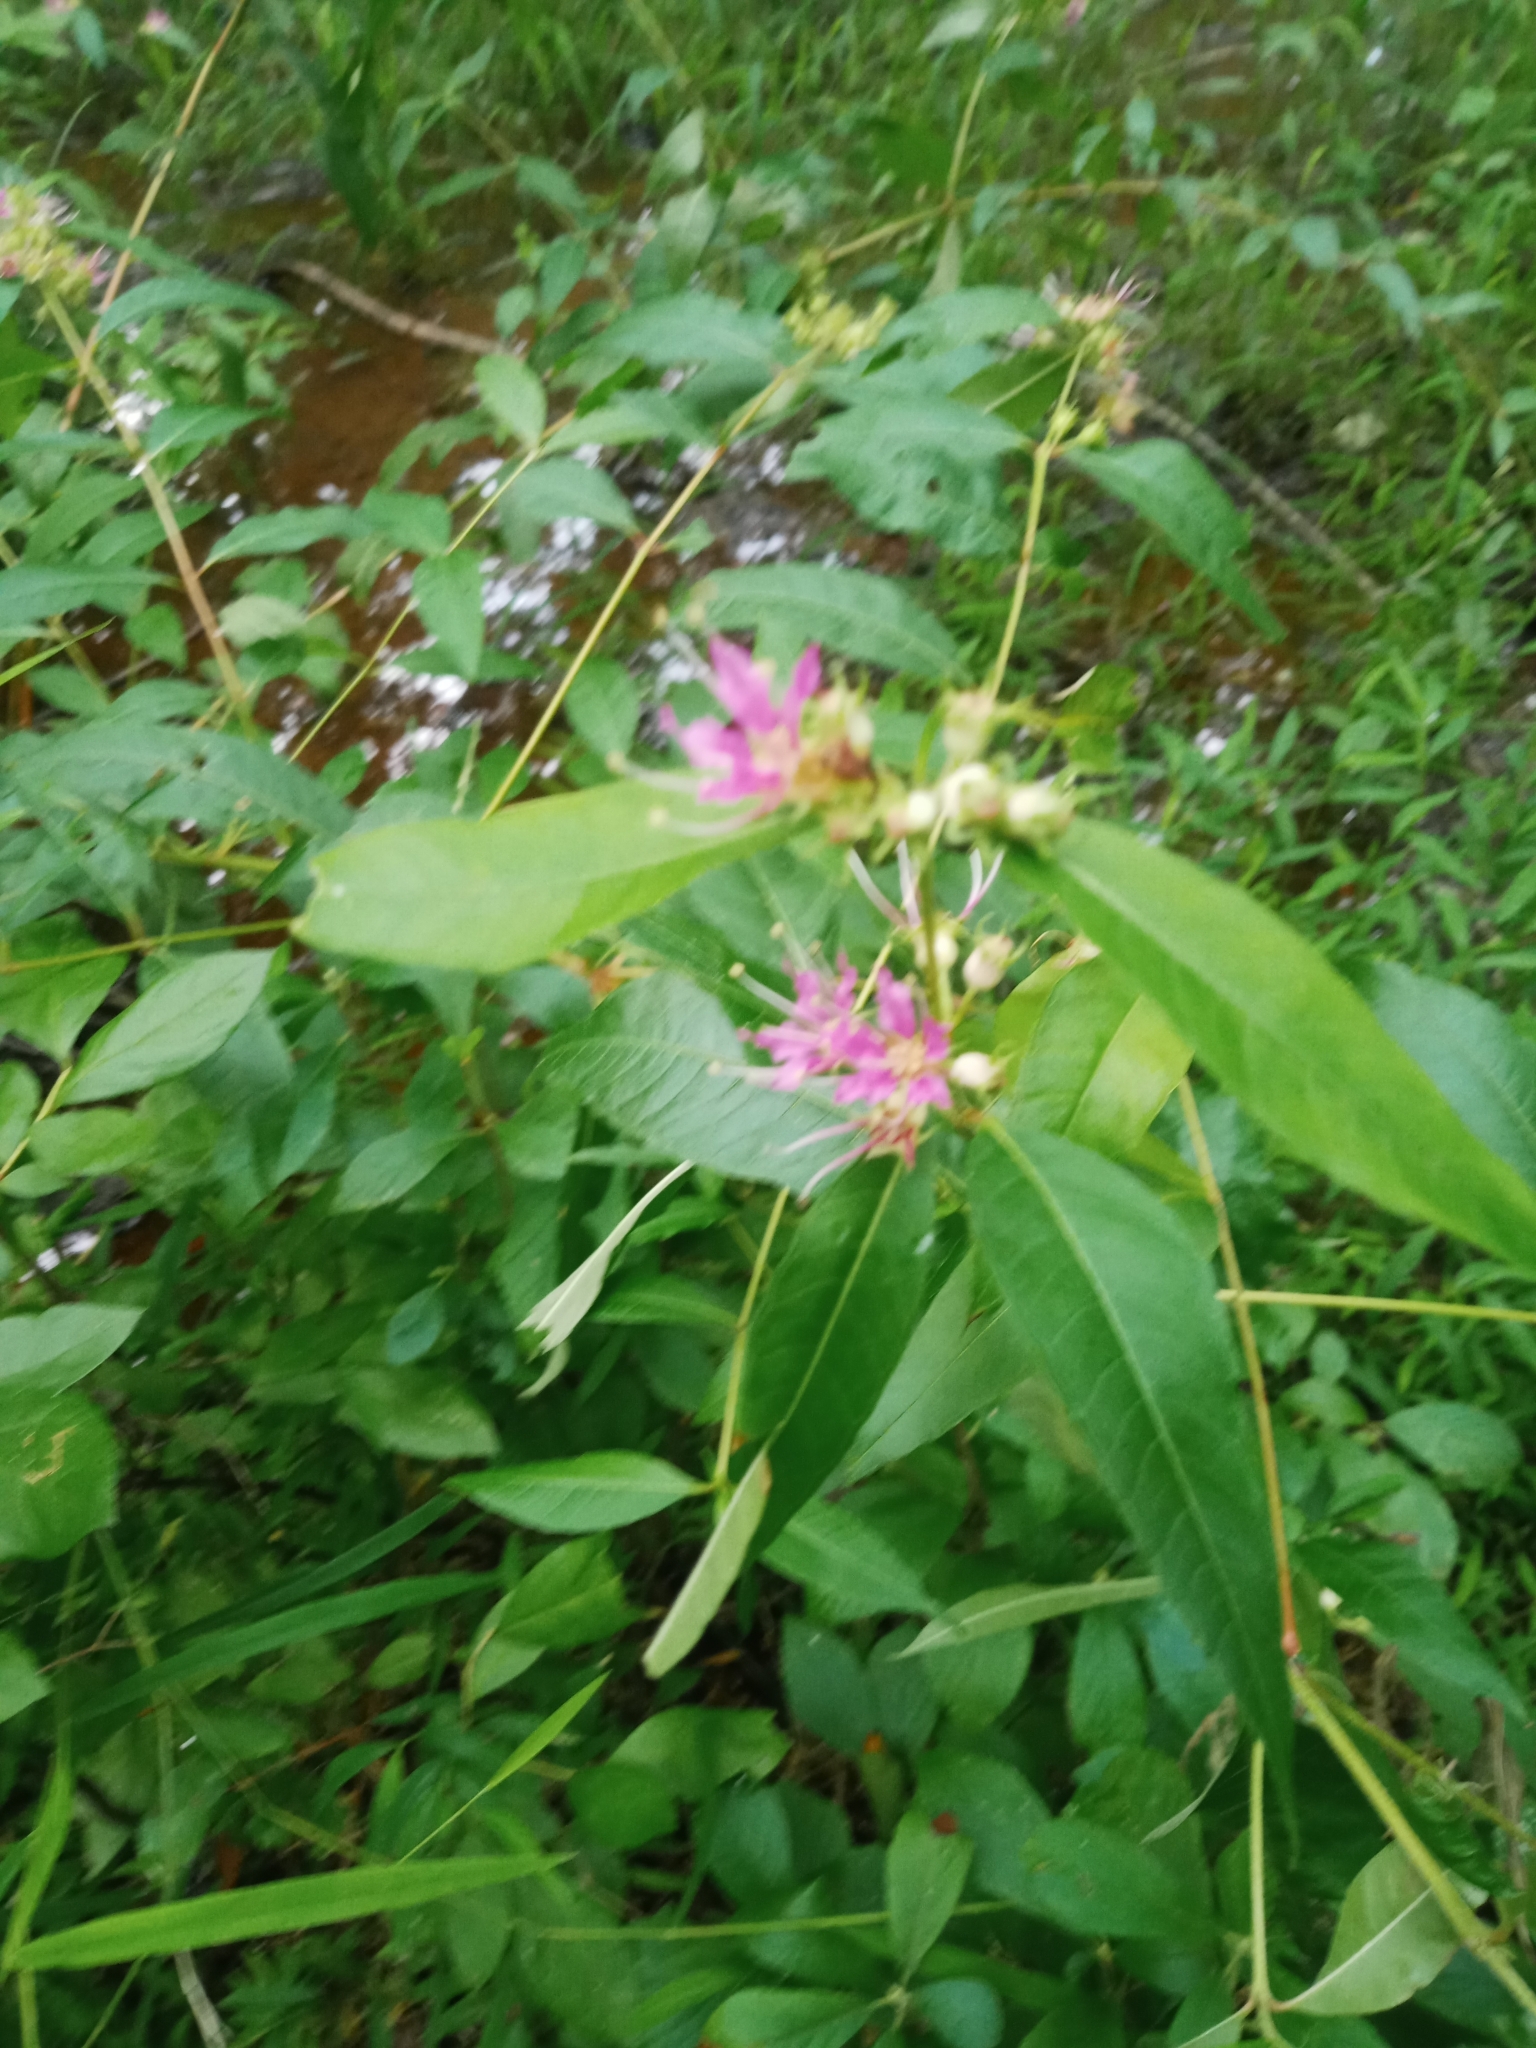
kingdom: Plantae
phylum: Tracheophyta
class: Magnoliopsida
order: Myrtales
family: Lythraceae
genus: Decodon
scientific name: Decodon verticillatus
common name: Hairy swamp loosestrife
